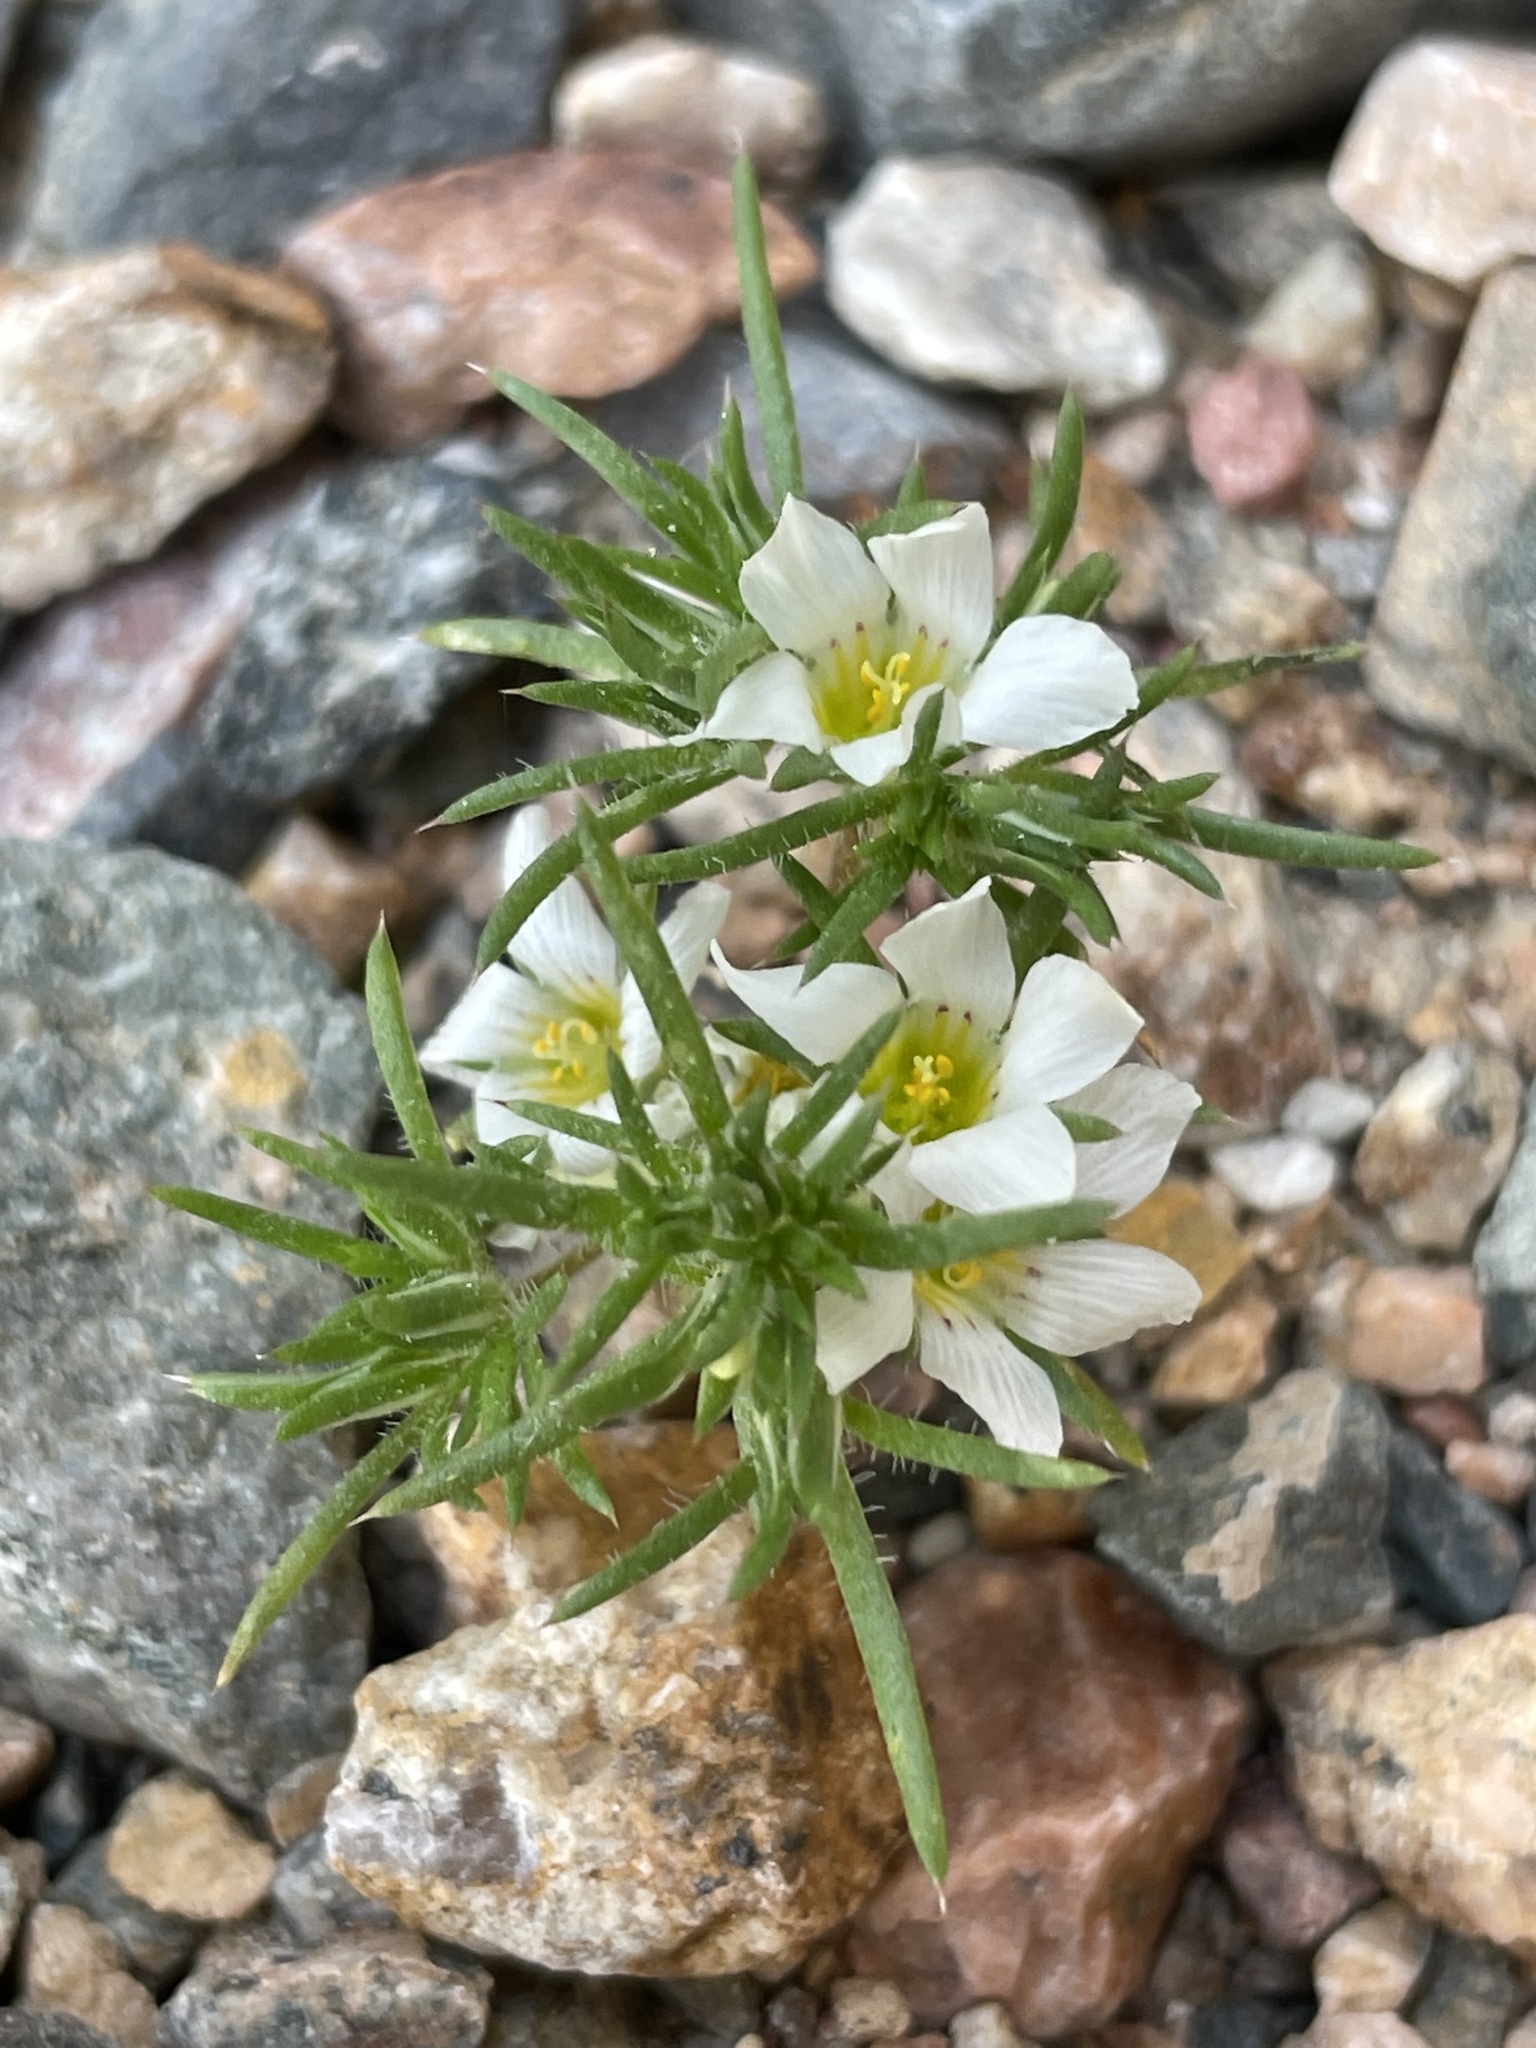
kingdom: Plantae
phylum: Tracheophyta
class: Magnoliopsida
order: Ericales
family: Polemoniaceae
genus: Linanthus
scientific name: Linanthus demissus
